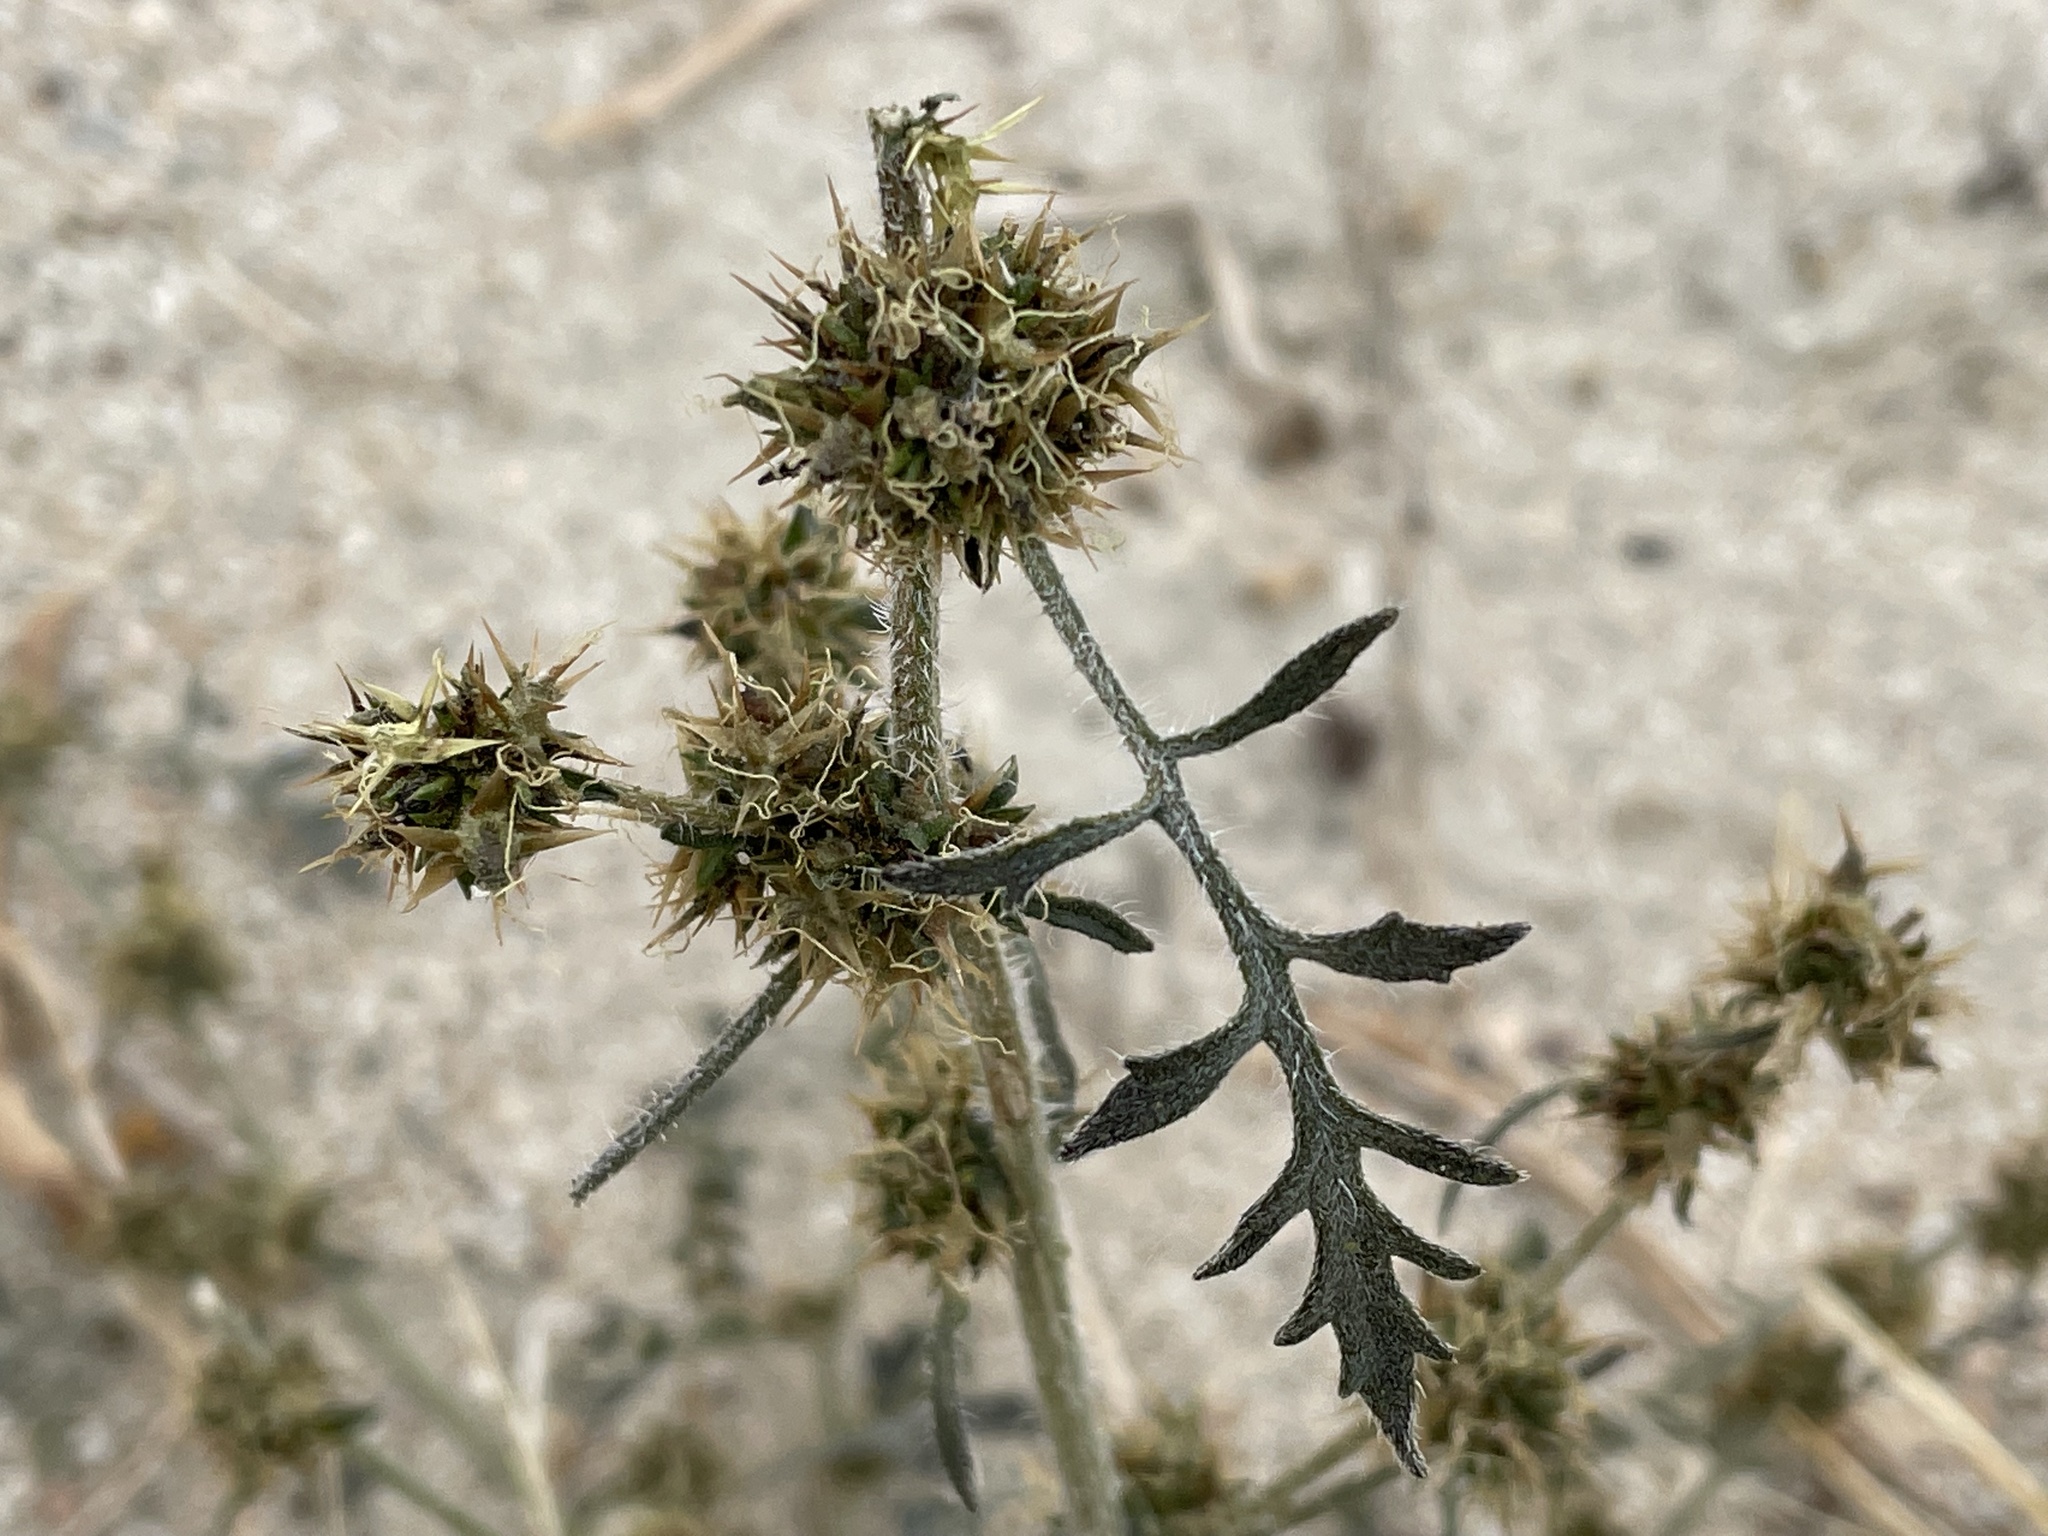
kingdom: Plantae
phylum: Tracheophyta
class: Magnoliopsida
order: Asterales
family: Asteraceae
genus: Ambrosia
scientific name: Ambrosia acanthicarpa
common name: Hooker's bur ragweed
